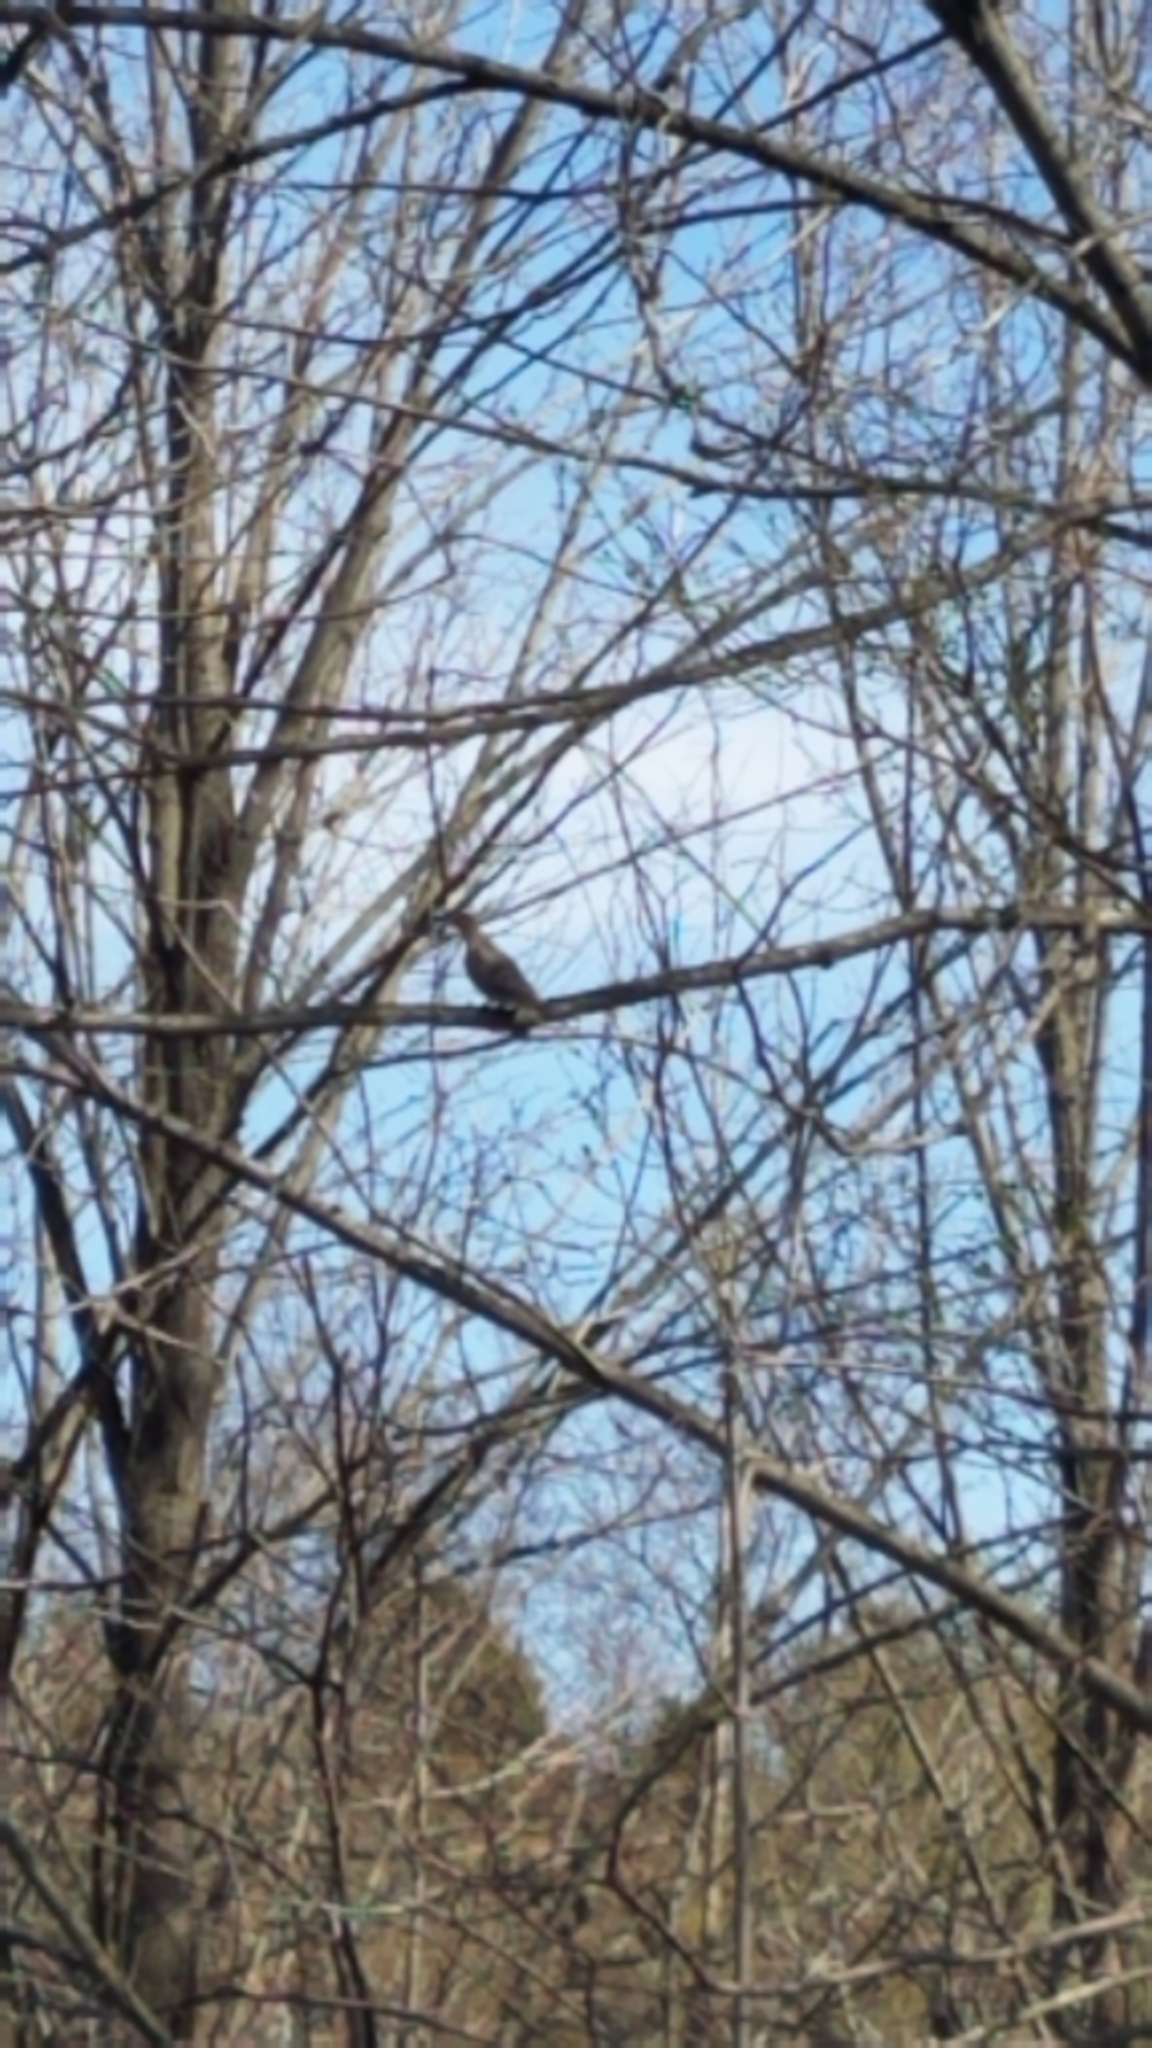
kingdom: Animalia
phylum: Chordata
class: Aves
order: Columbiformes
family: Columbidae
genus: Zenaida
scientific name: Zenaida macroura
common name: Mourning dove
